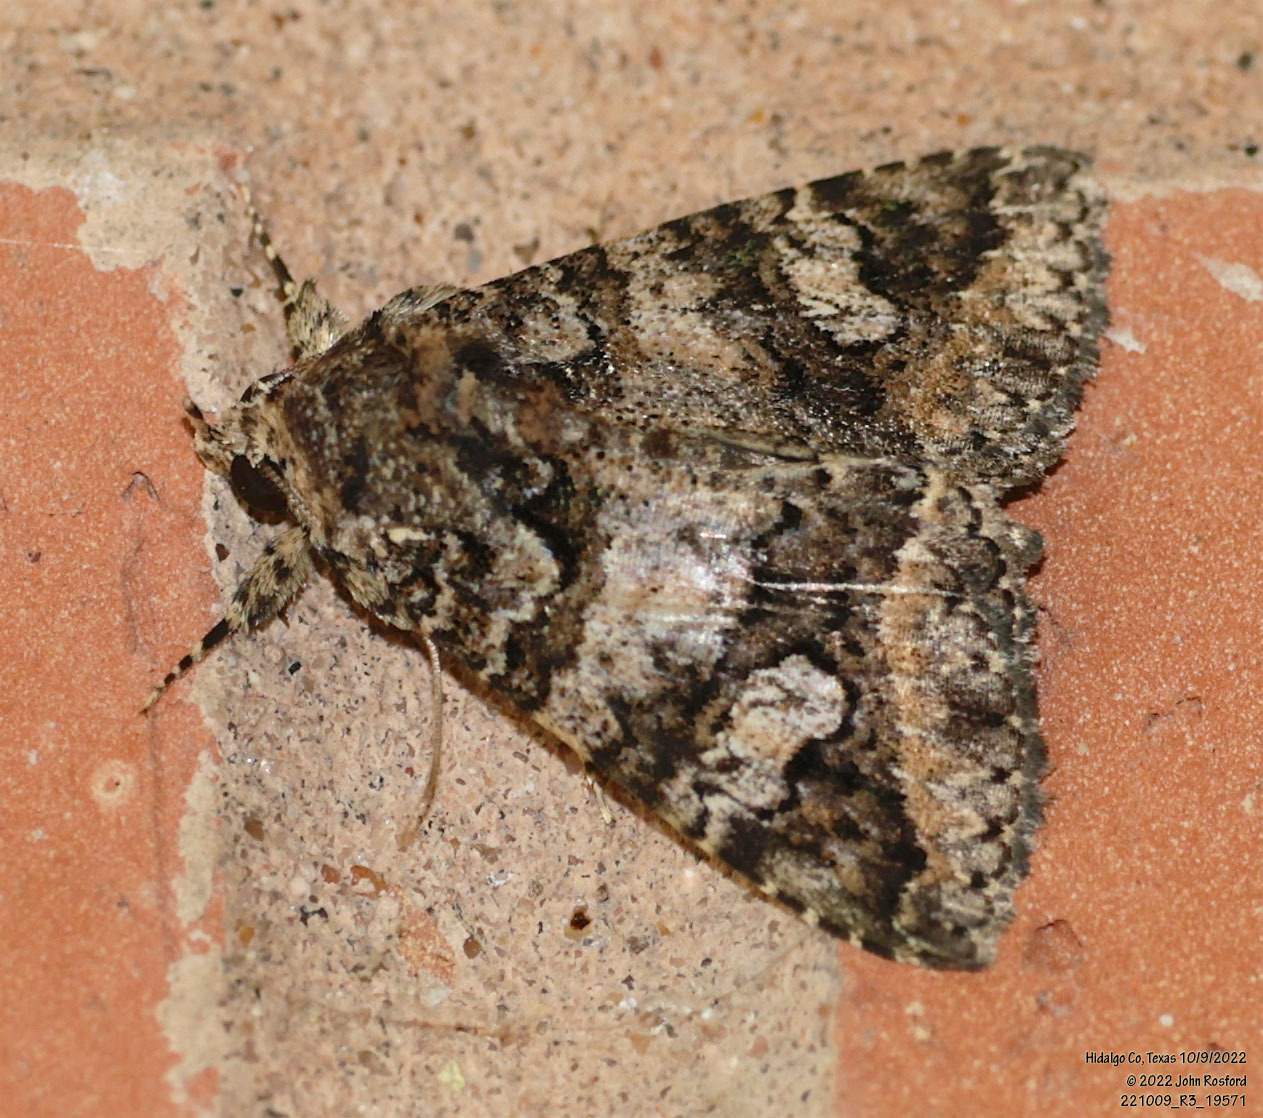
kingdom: Animalia
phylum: Arthropoda
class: Insecta
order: Lepidoptera
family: Erebidae
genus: Coxina
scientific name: Coxina cinctipalpis
